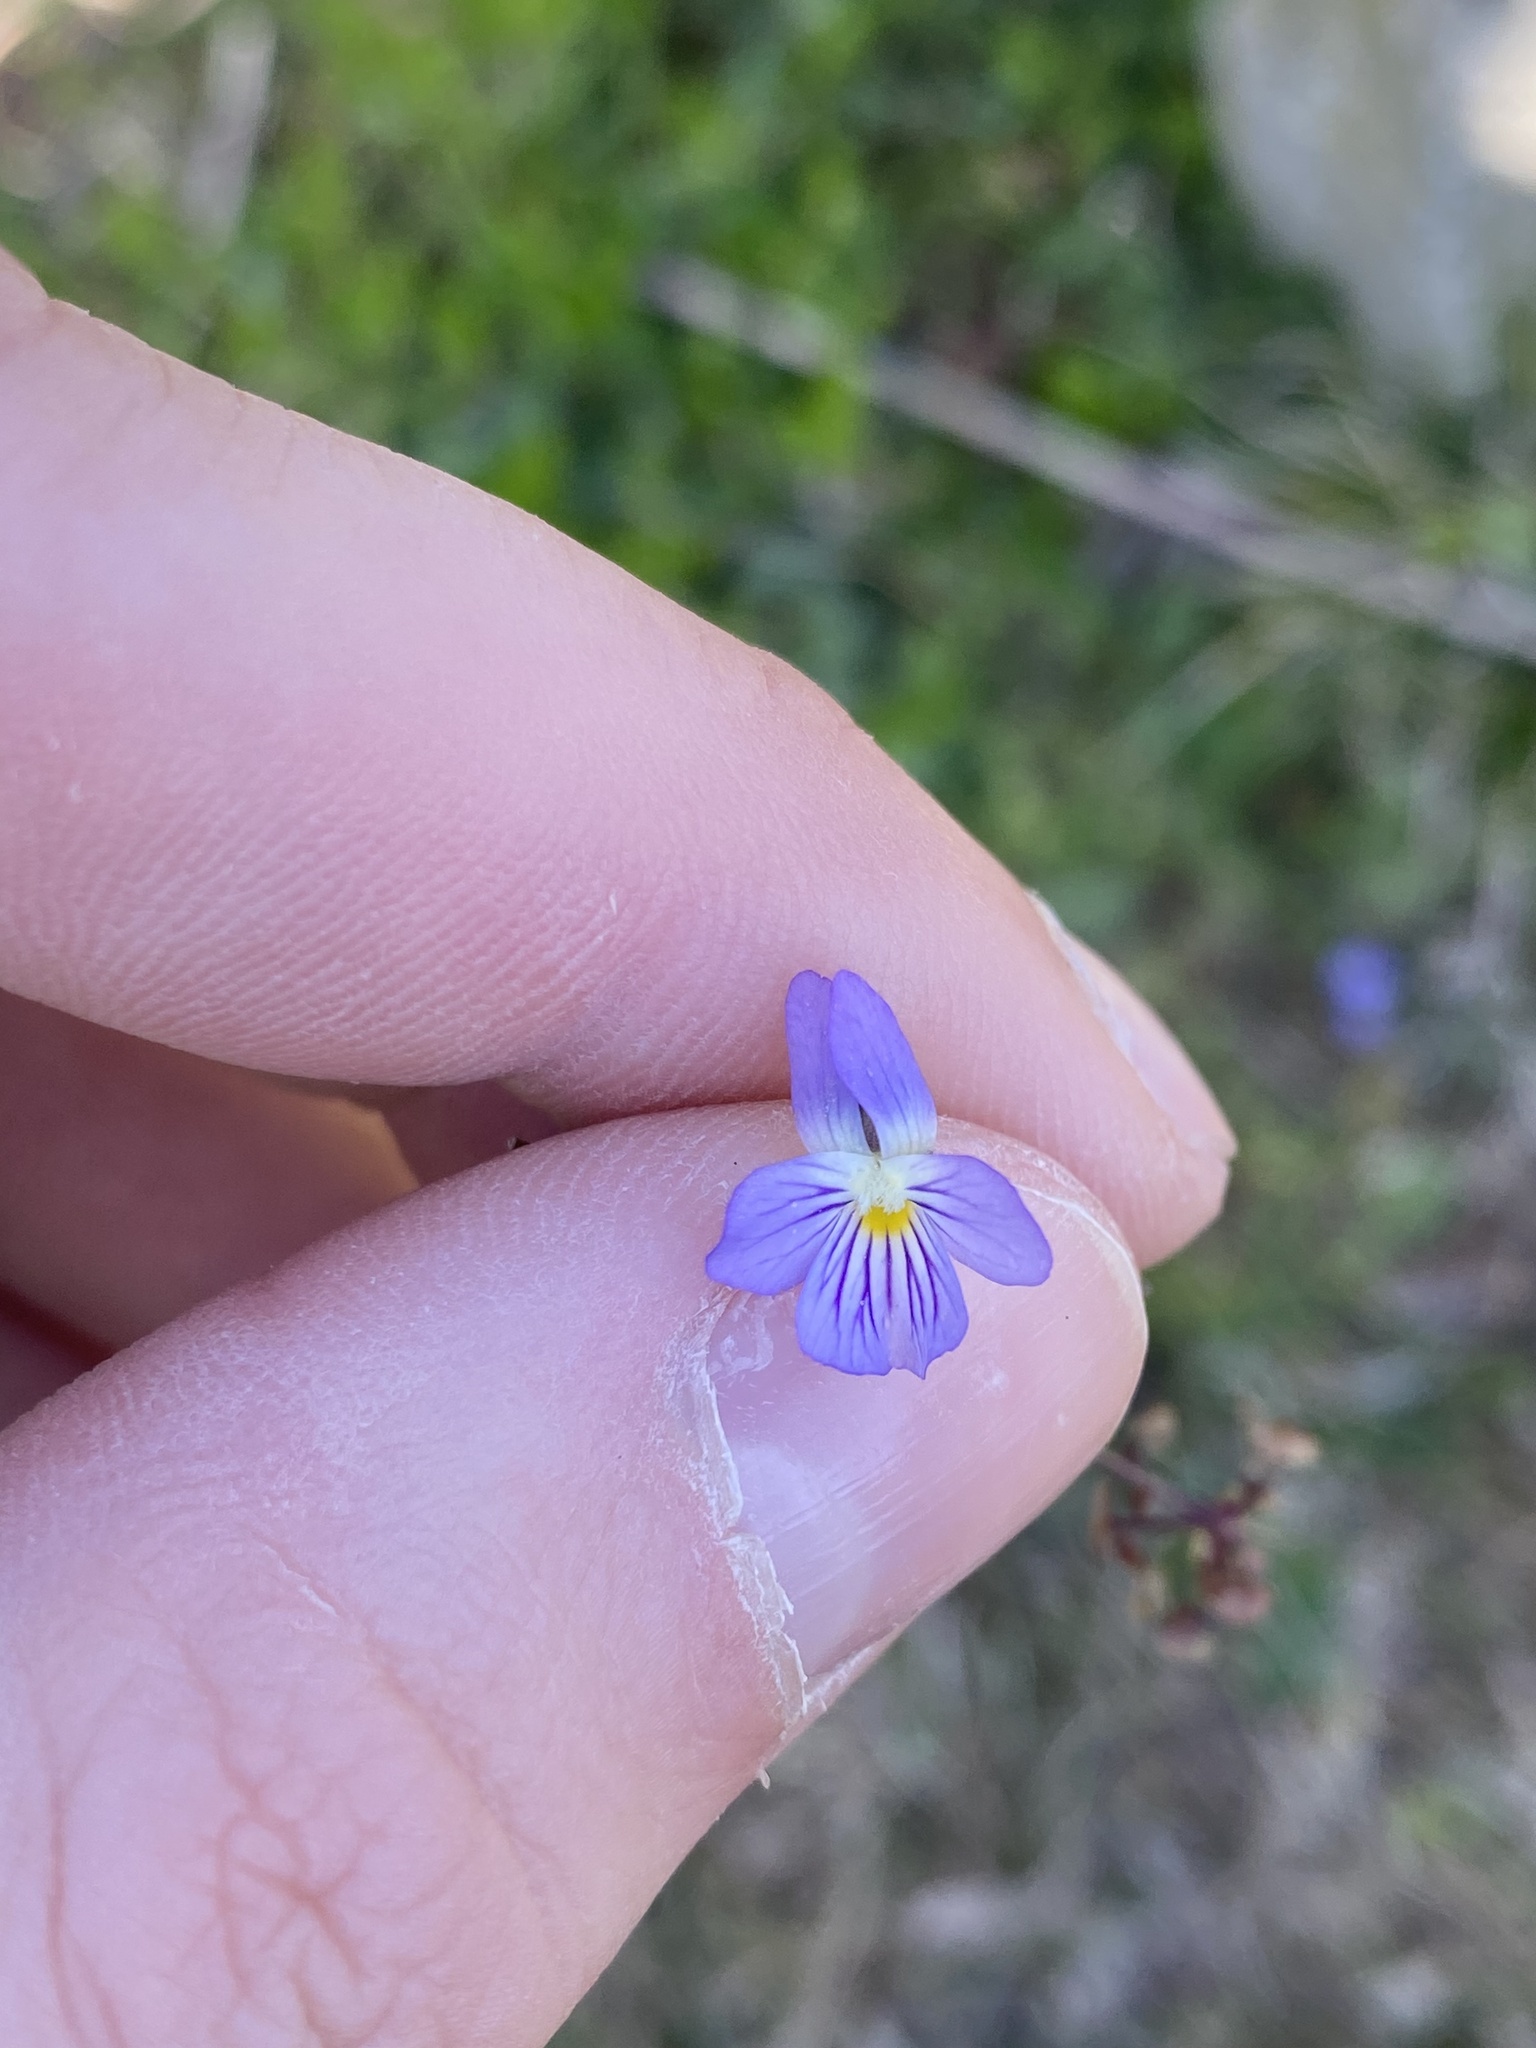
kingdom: Plantae
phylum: Tracheophyta
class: Magnoliopsida
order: Malpighiales
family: Violaceae
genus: Viola
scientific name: Viola rafinesquei
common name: American field pansy
